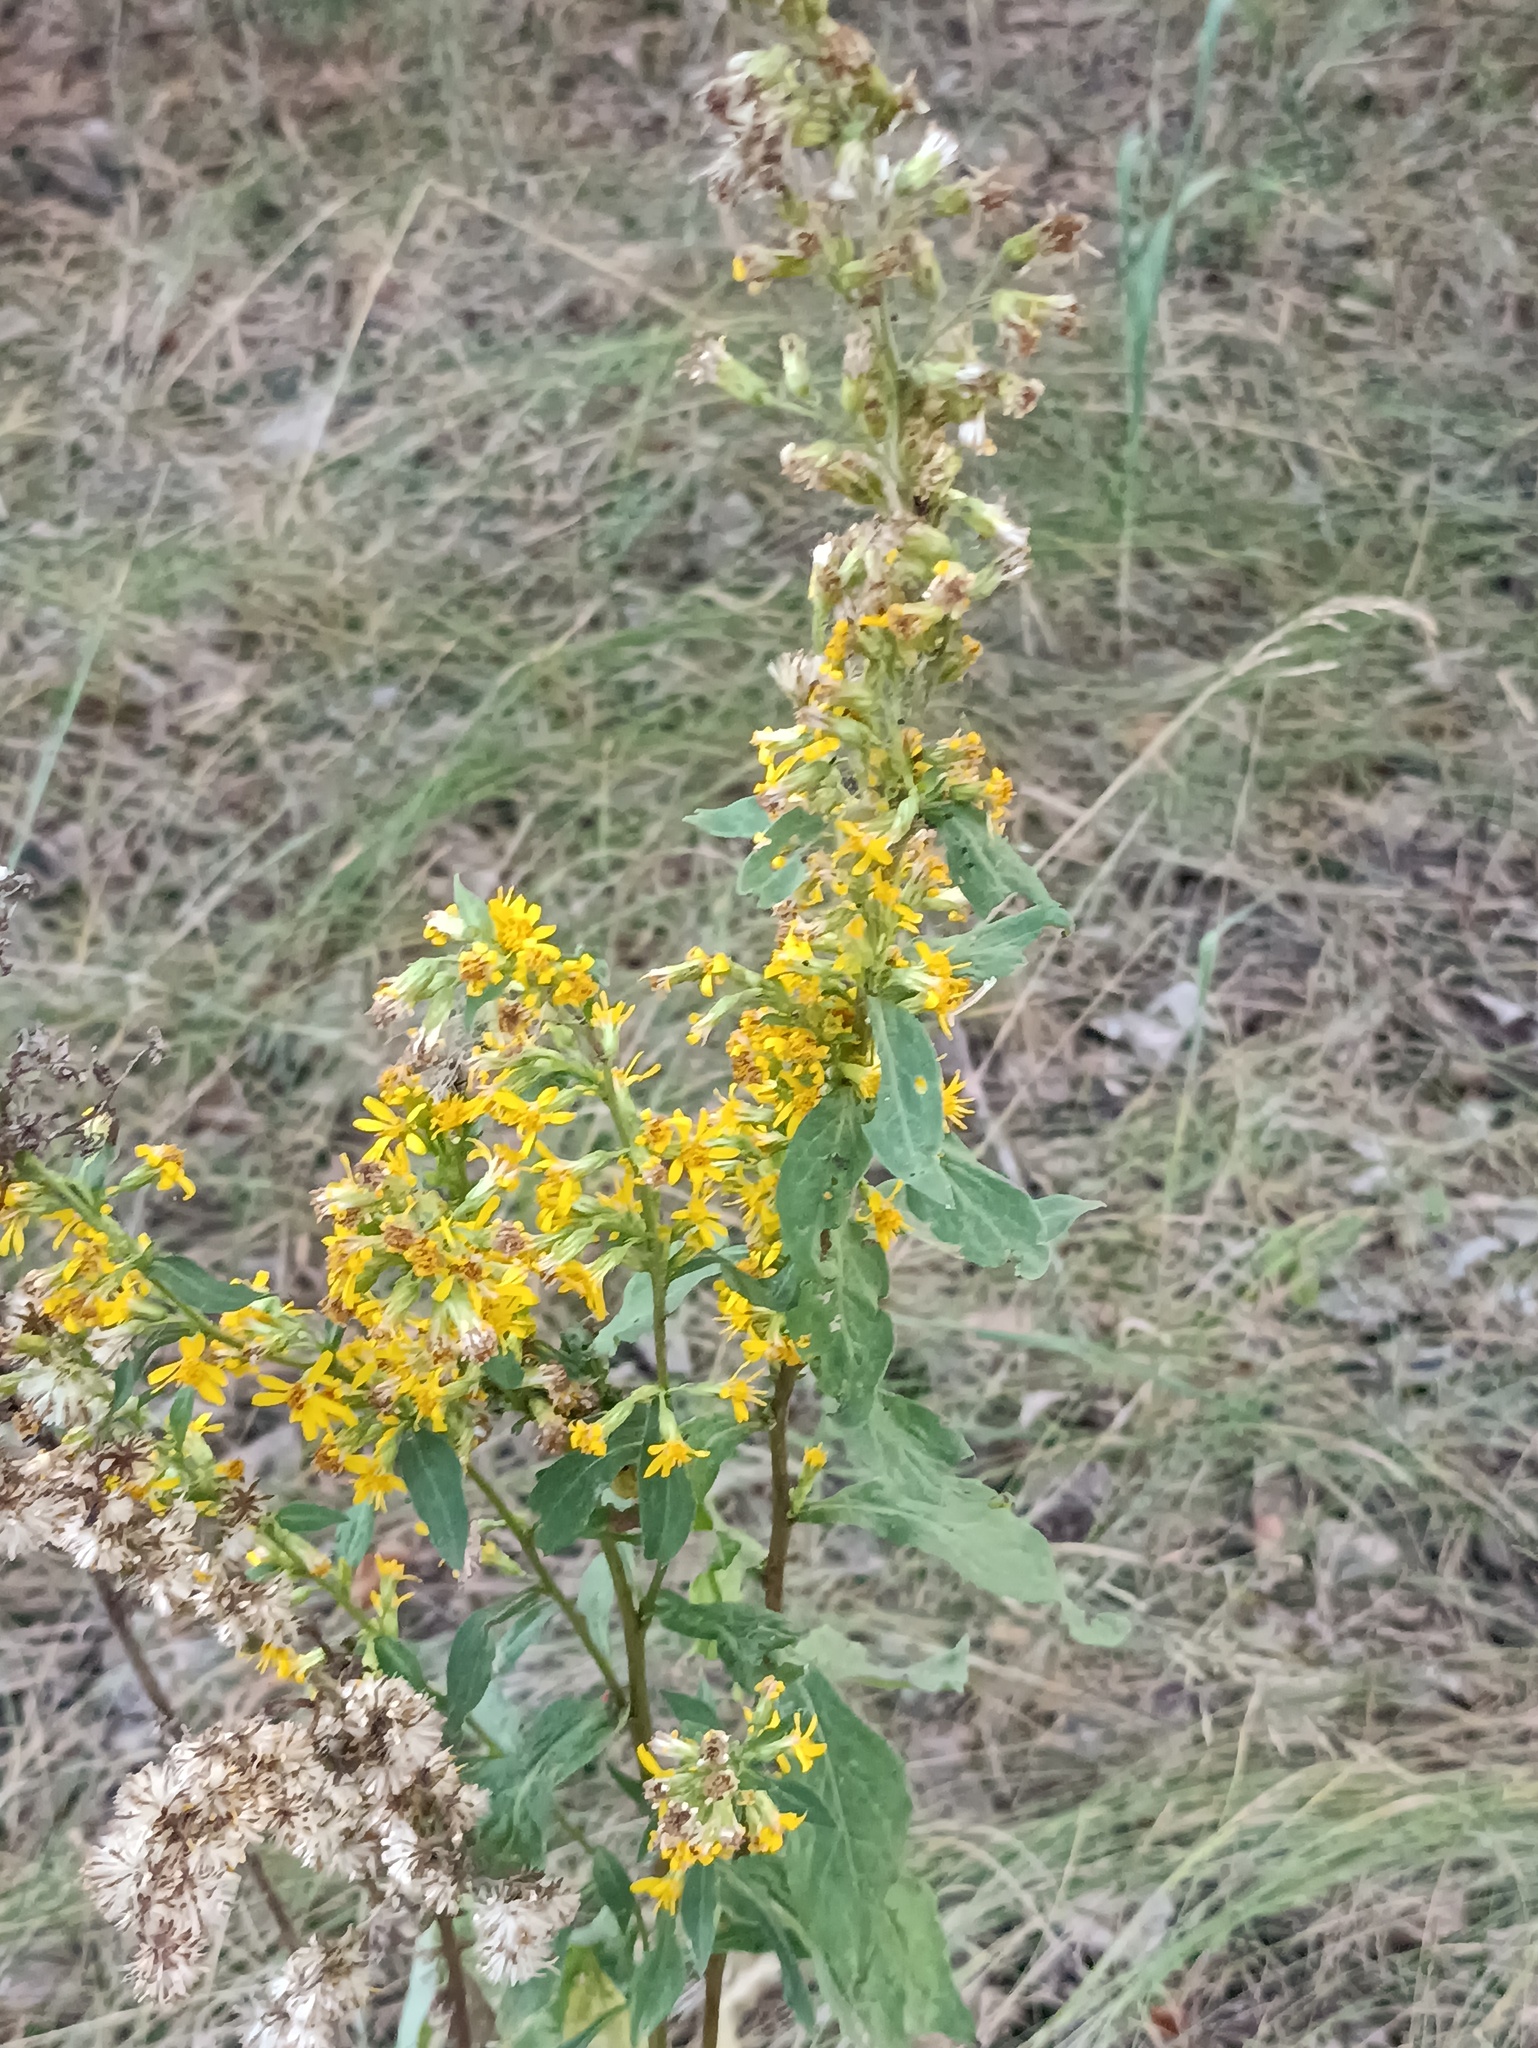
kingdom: Plantae
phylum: Tracheophyta
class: Magnoliopsida
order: Asterales
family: Asteraceae
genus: Solidago
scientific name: Solidago virgaurea
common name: Goldenrod
